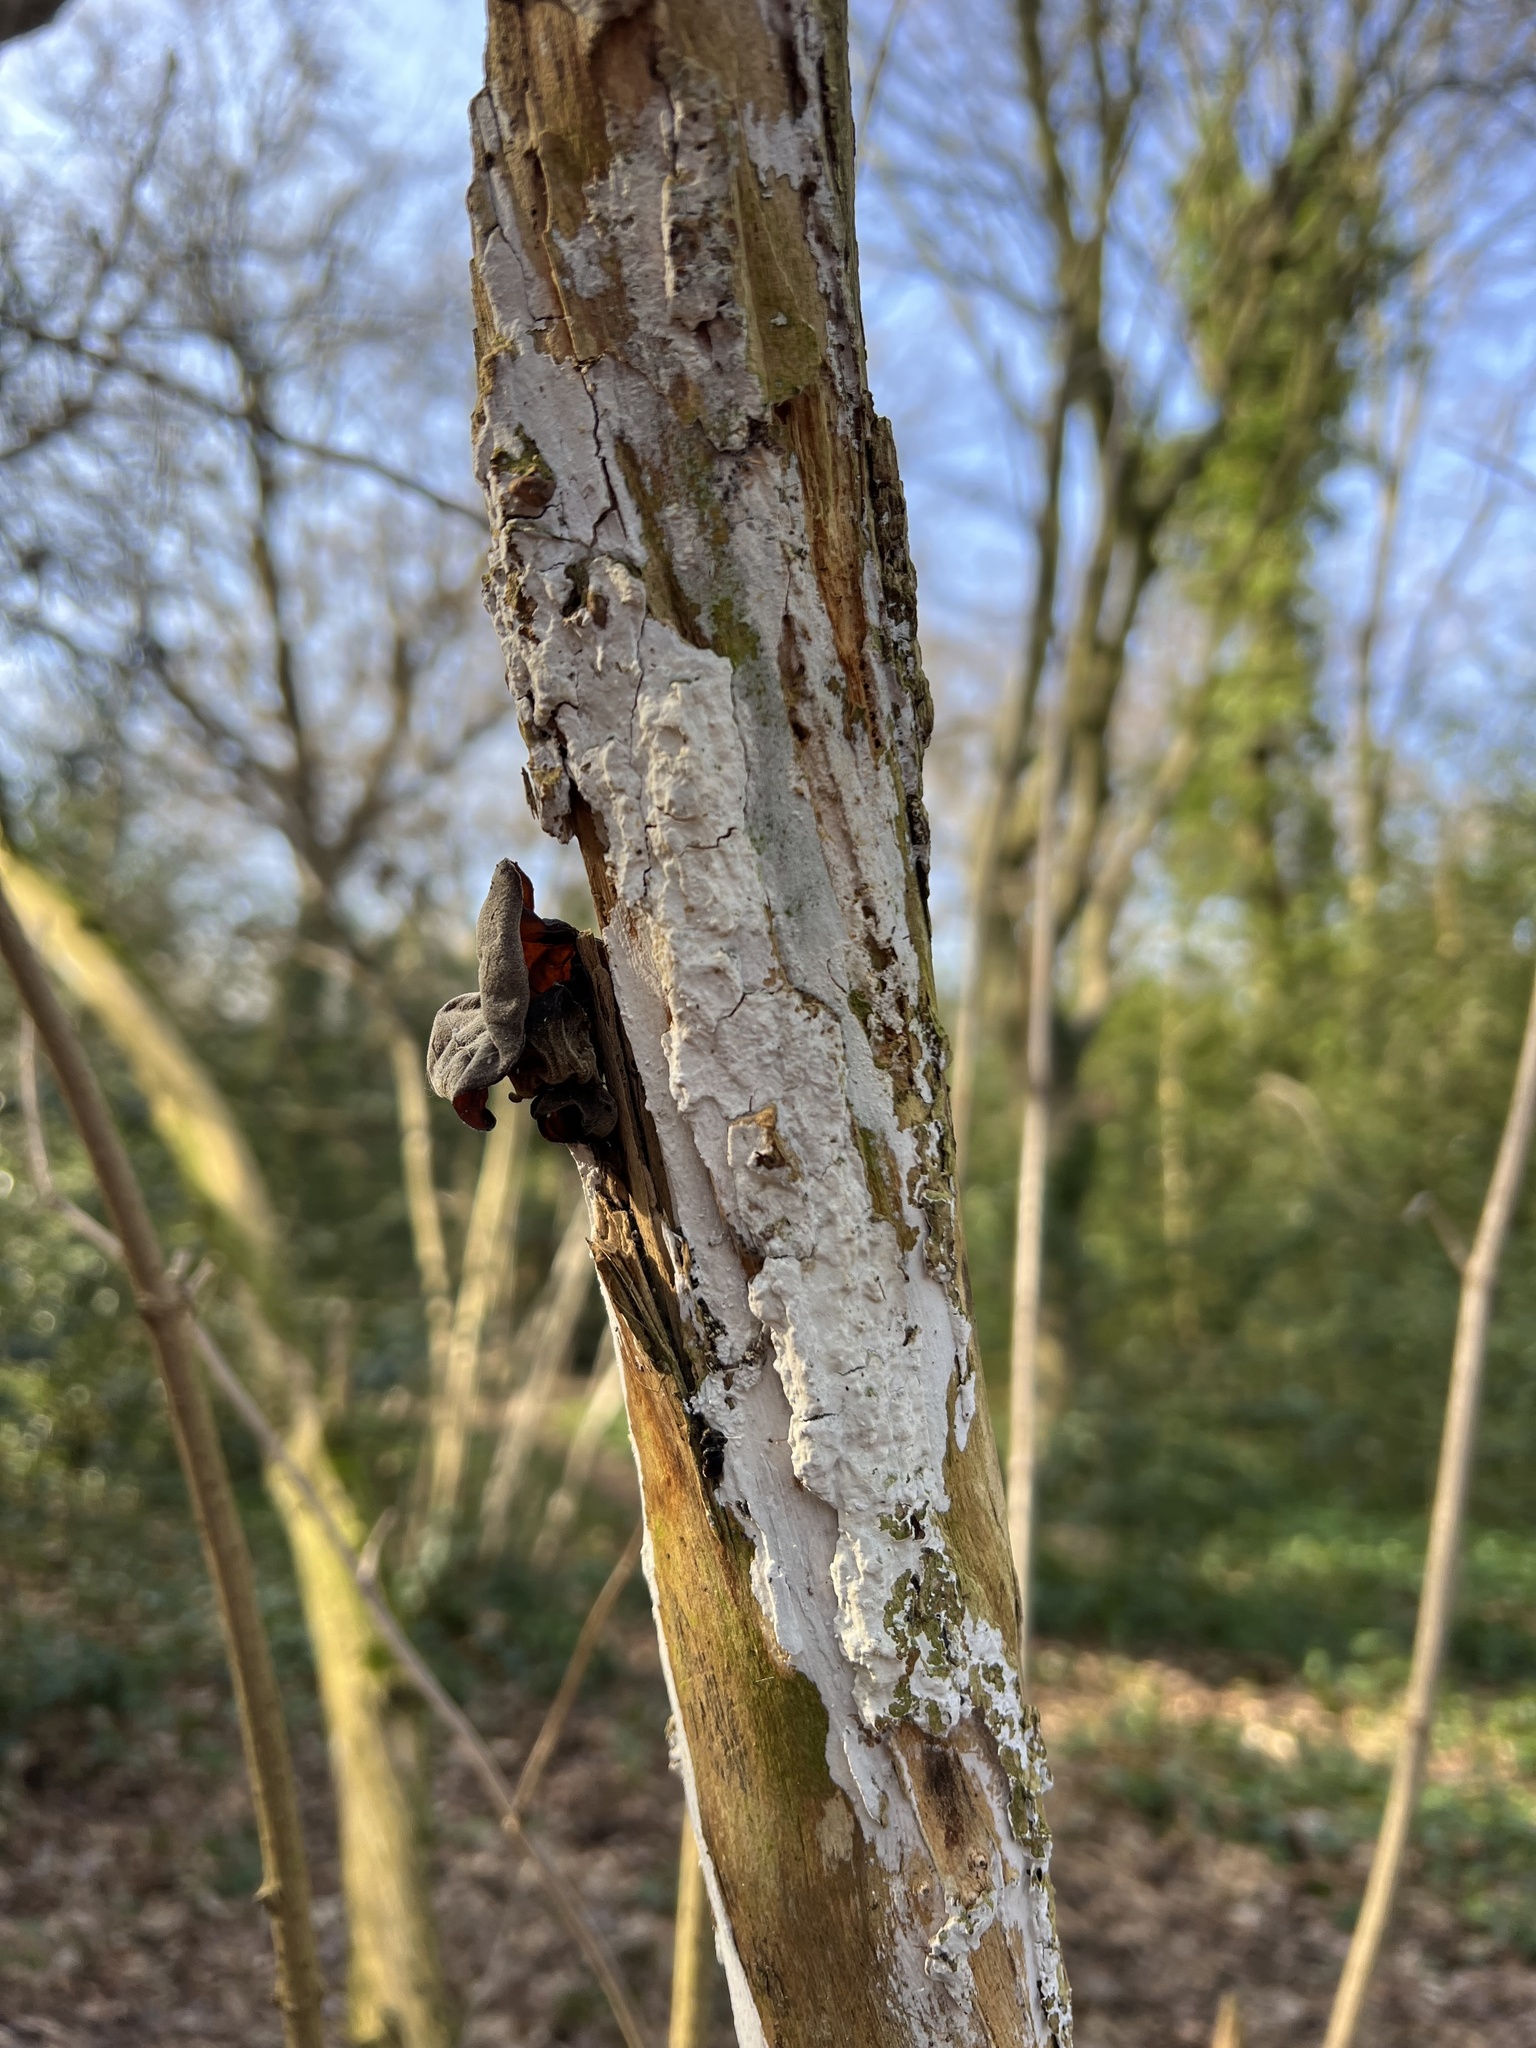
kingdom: Fungi
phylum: Basidiomycota
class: Agaricomycetes
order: Auriculariales
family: Auriculariaceae
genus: Auricularia
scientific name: Auricularia auricula-judae
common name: Jelly ear
